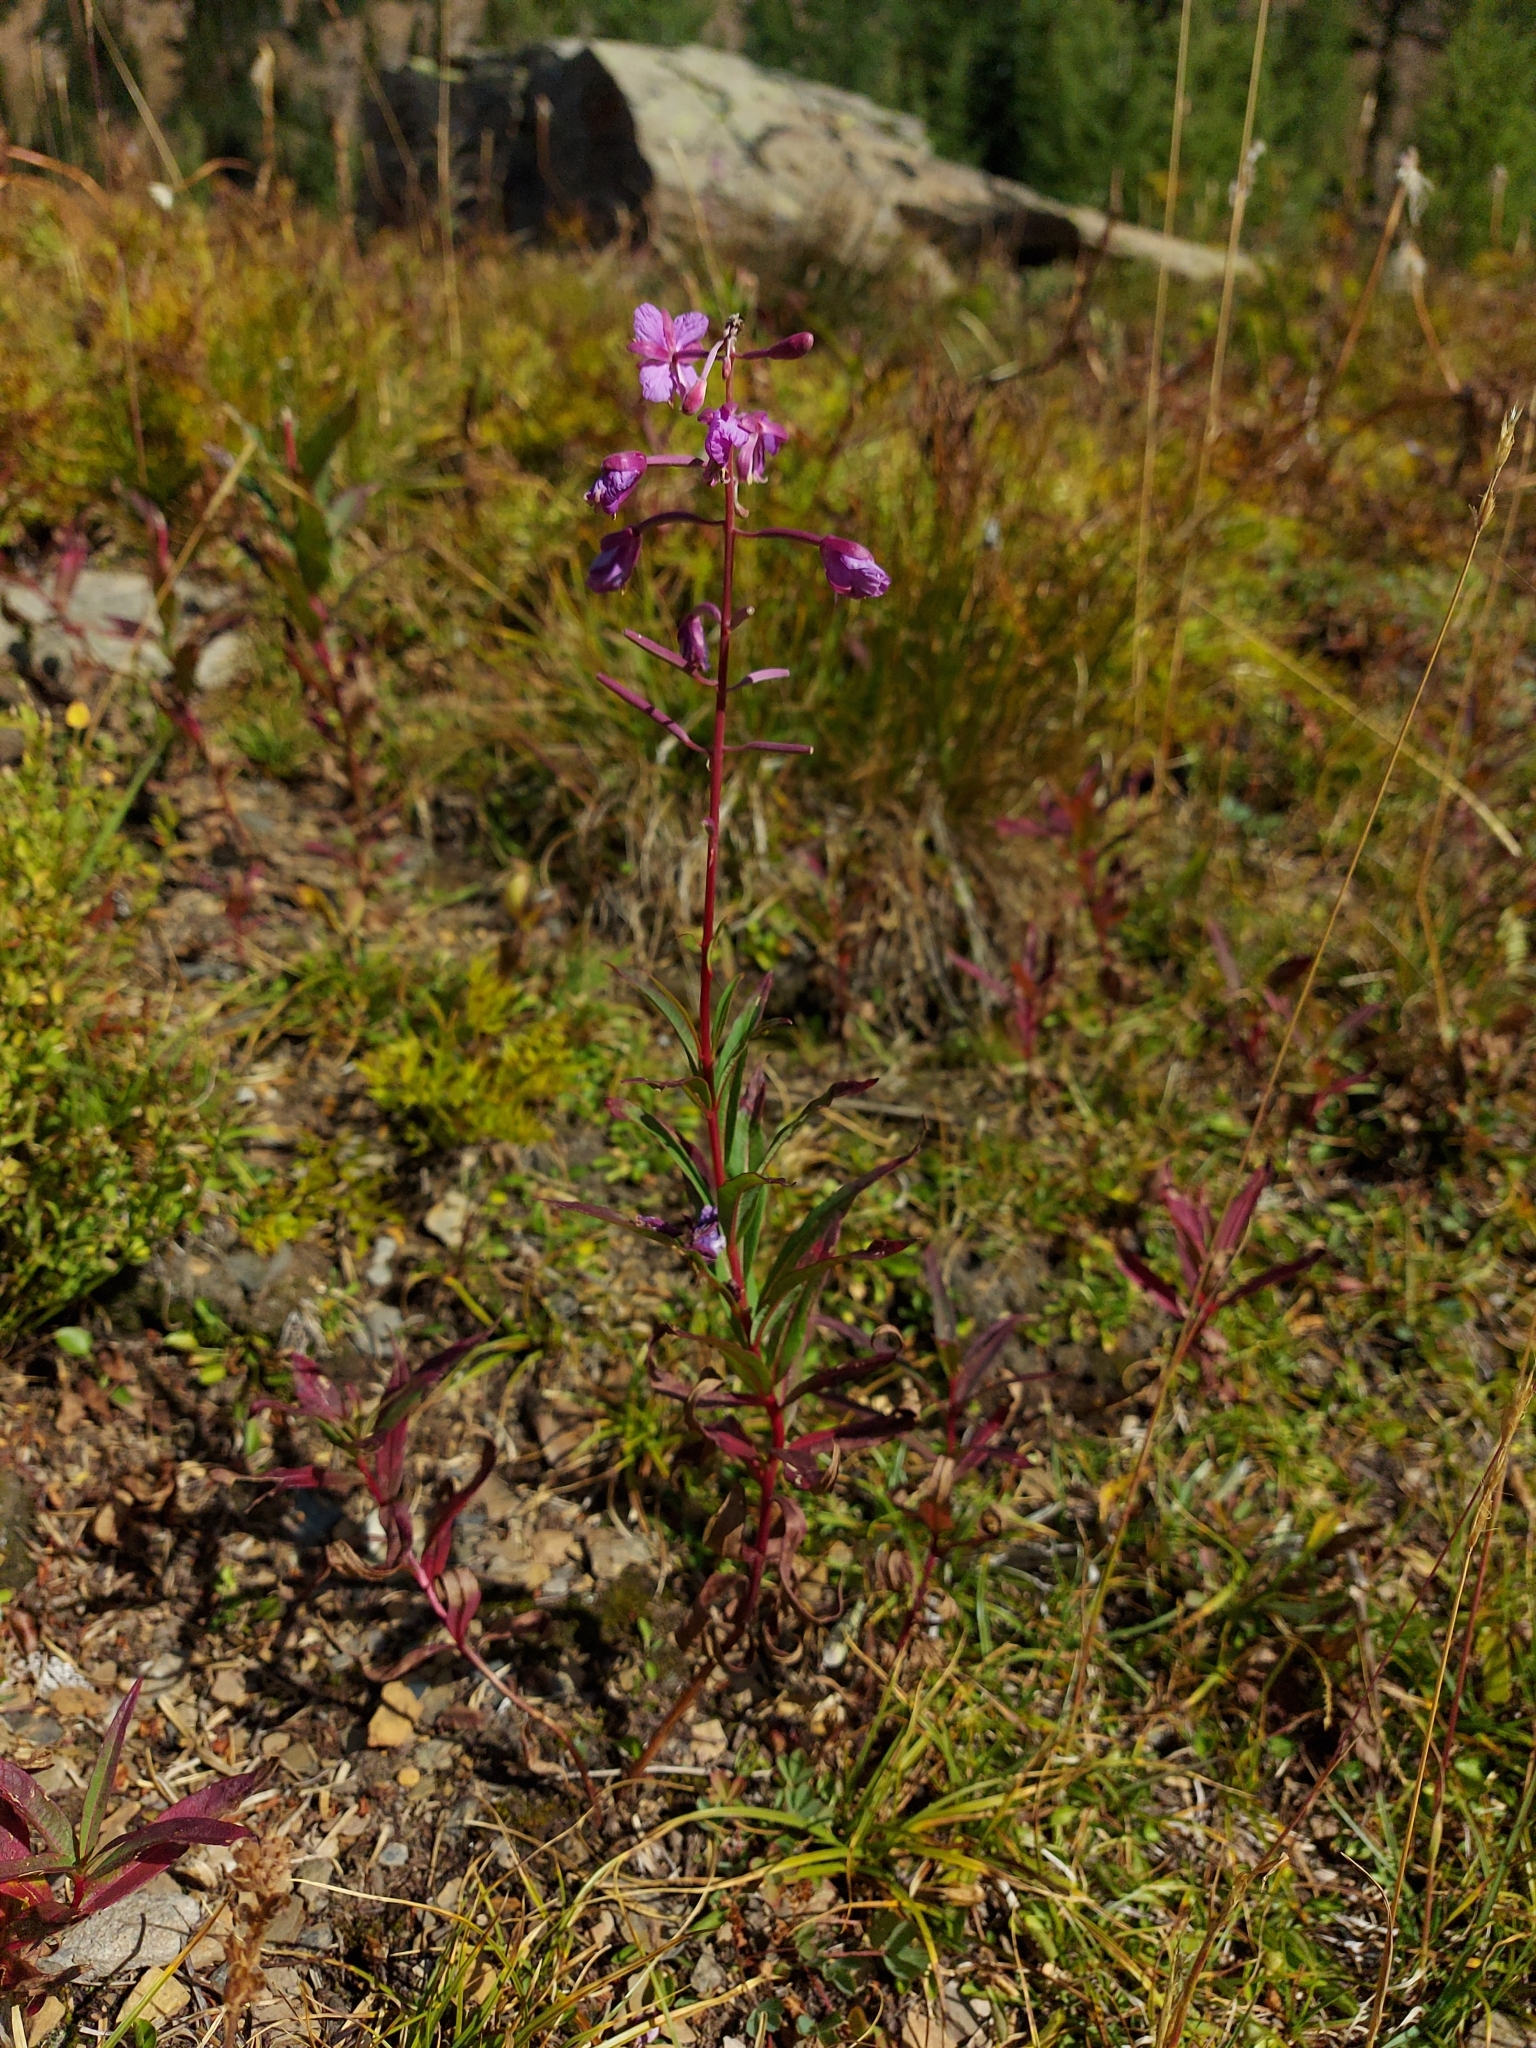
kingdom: Plantae
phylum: Tracheophyta
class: Magnoliopsida
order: Myrtales
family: Onagraceae
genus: Chamaenerion
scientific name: Chamaenerion angustifolium
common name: Fireweed
